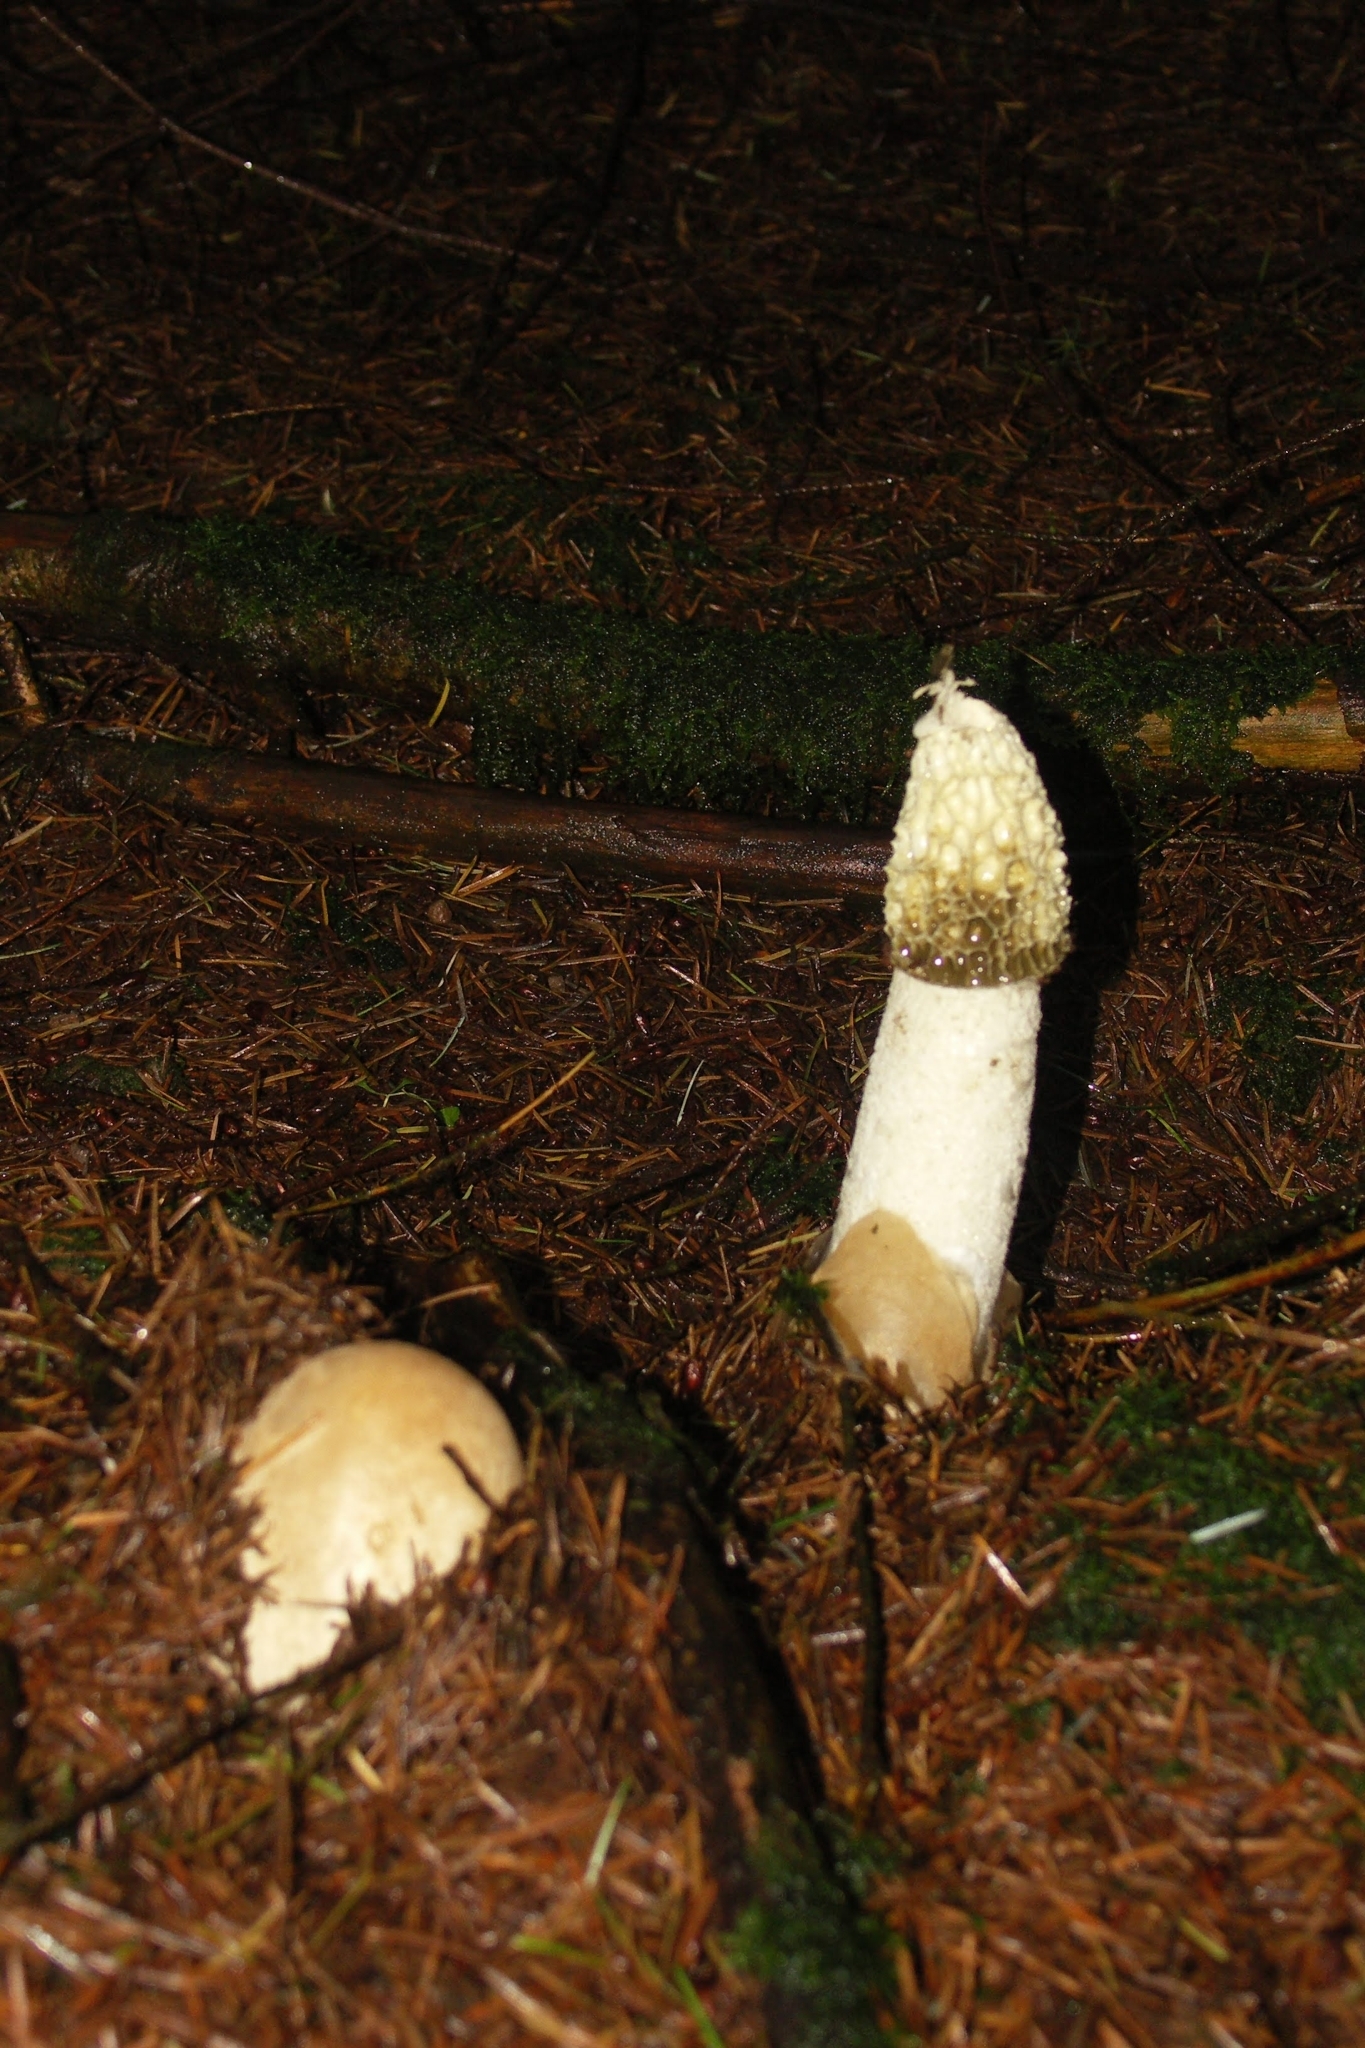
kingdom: Fungi
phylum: Basidiomycota
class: Agaricomycetes
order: Phallales
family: Phallaceae
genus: Phallus
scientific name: Phallus impudicus
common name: Common stinkhorn
